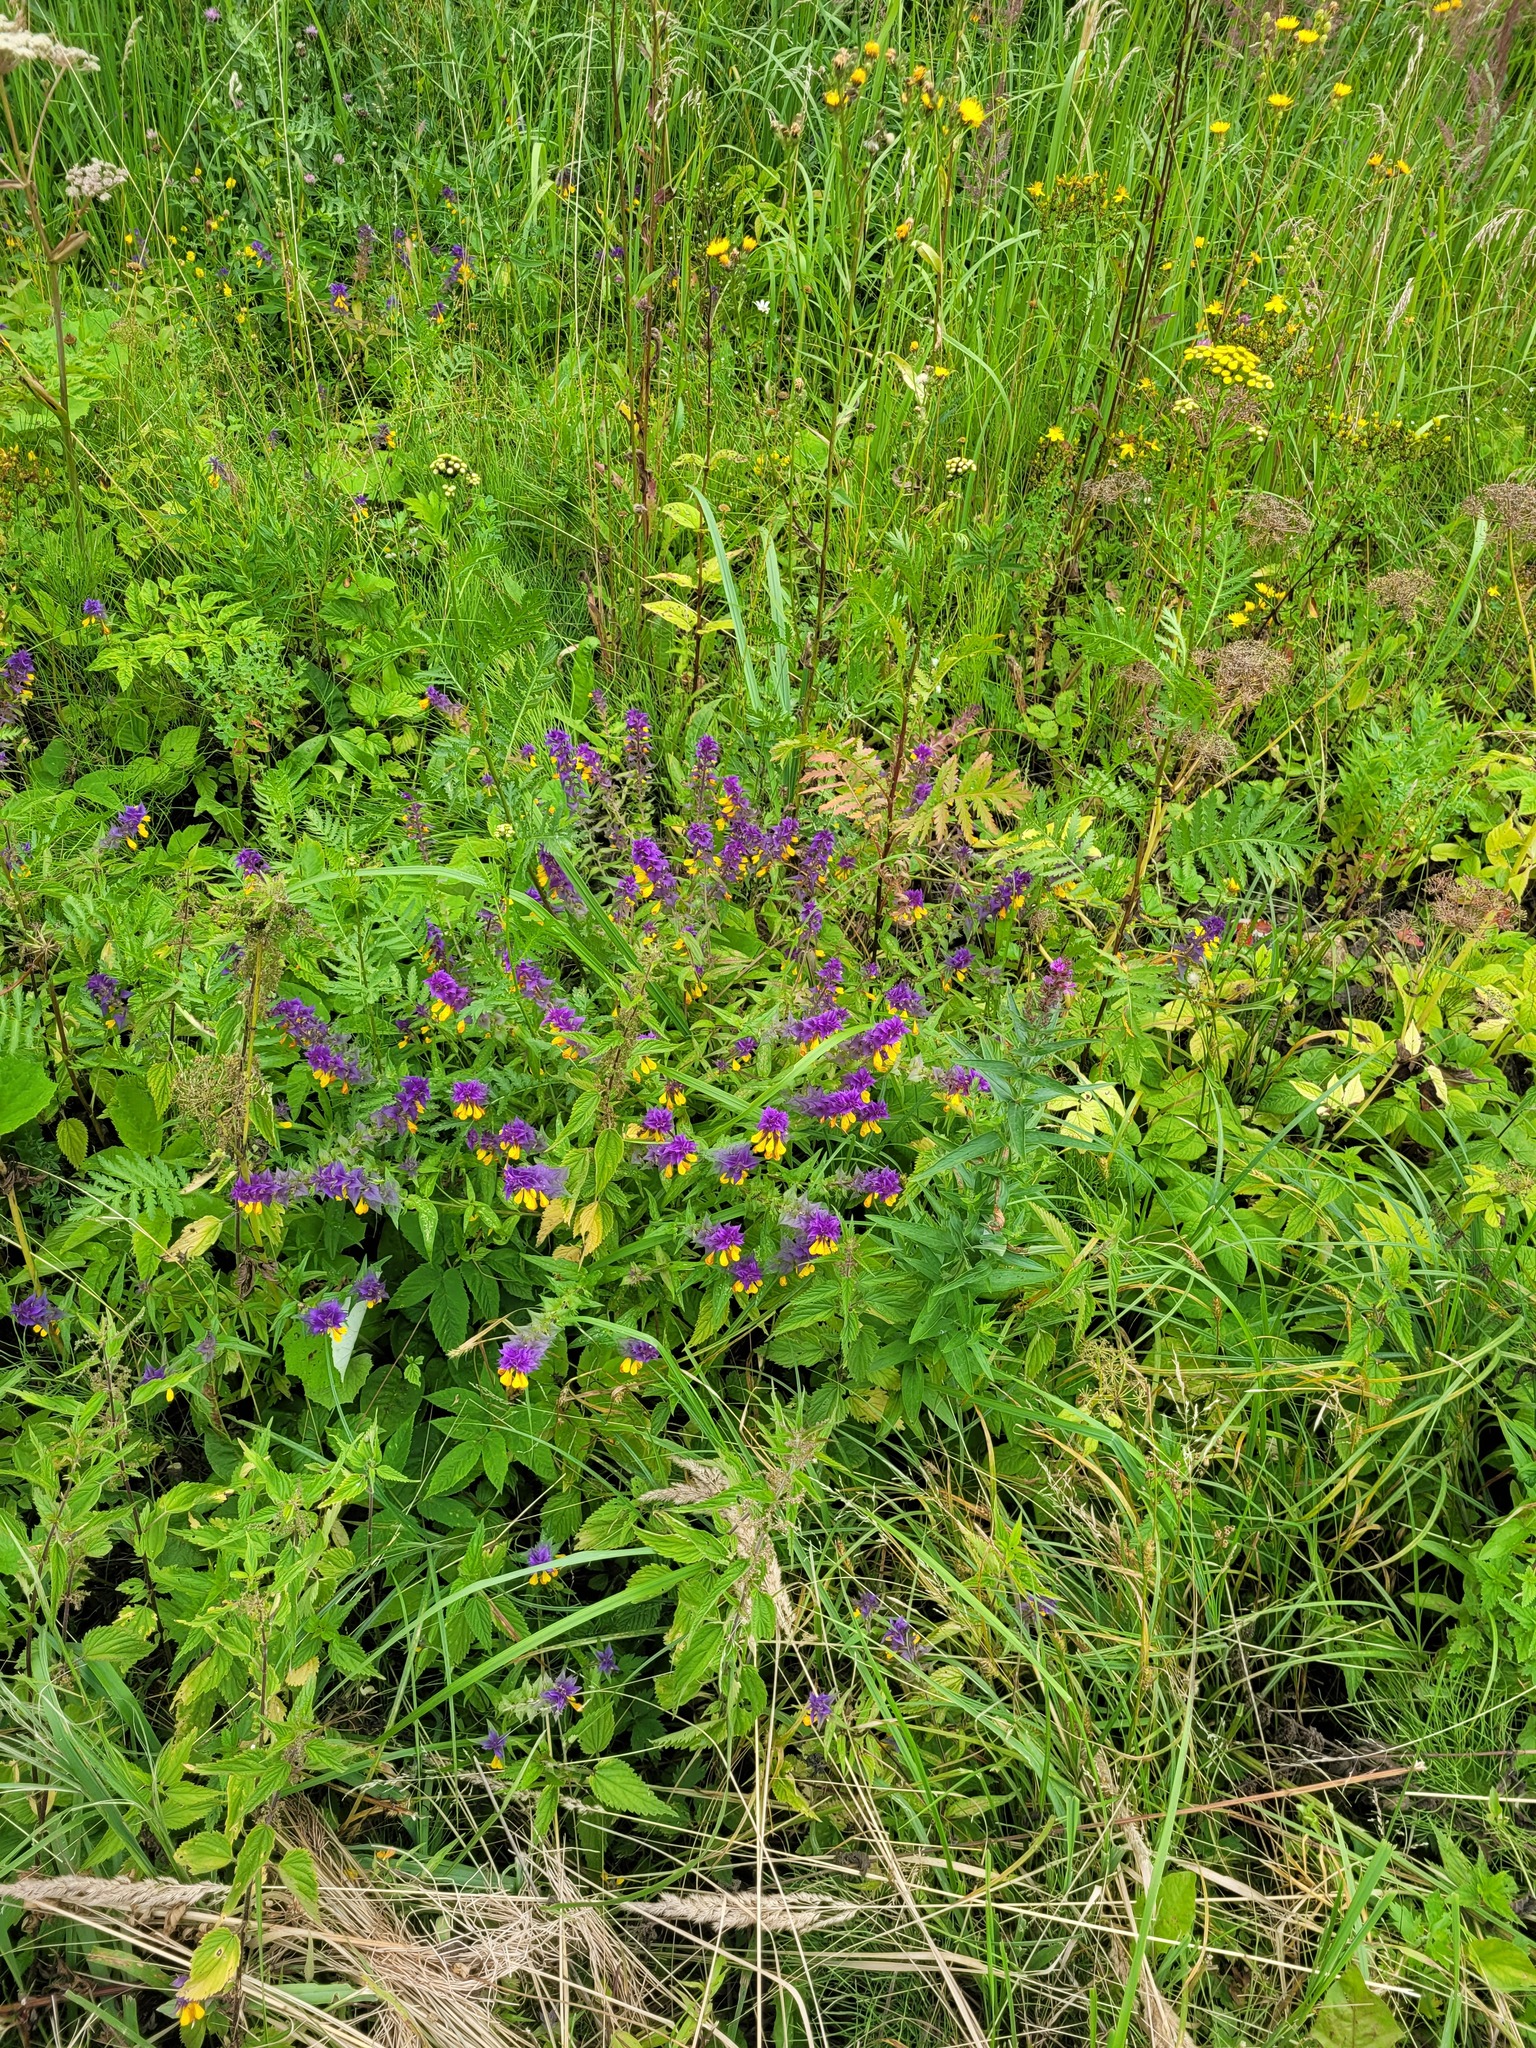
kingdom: Plantae
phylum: Tracheophyta
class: Magnoliopsida
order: Lamiales
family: Orobanchaceae
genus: Melampyrum
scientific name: Melampyrum nemorosum
